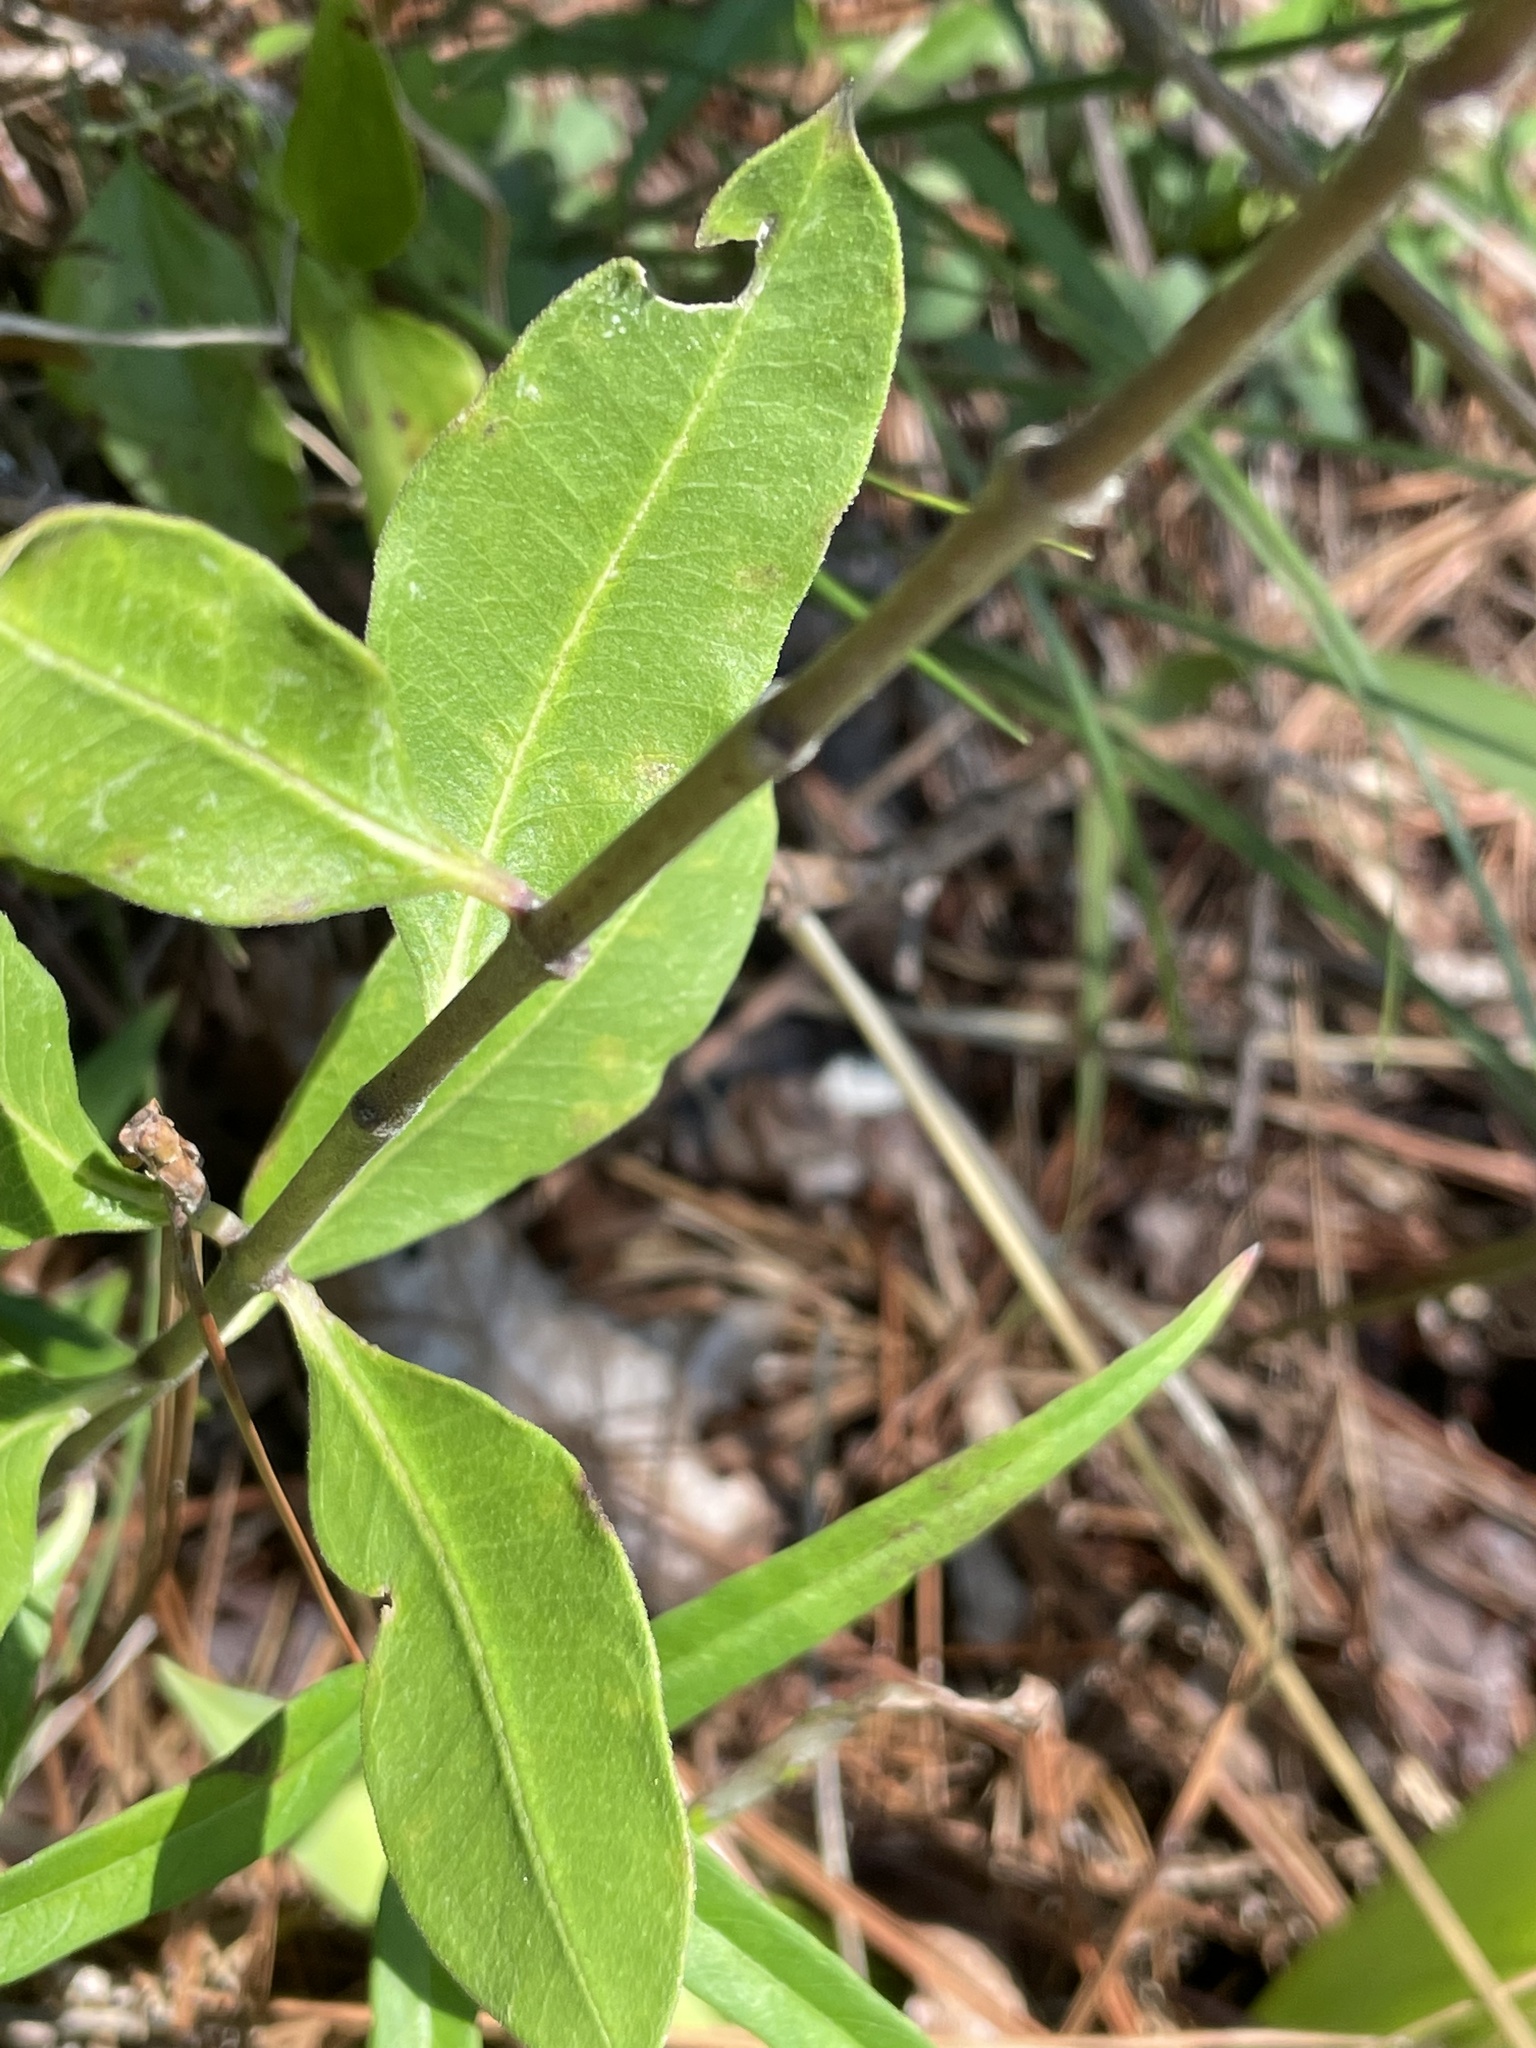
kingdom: Plantae
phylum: Tracheophyta
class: Magnoliopsida
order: Gentianales
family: Apocynaceae
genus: Asclepias
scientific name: Asclepias viridiflora
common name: Green comet milkweed
